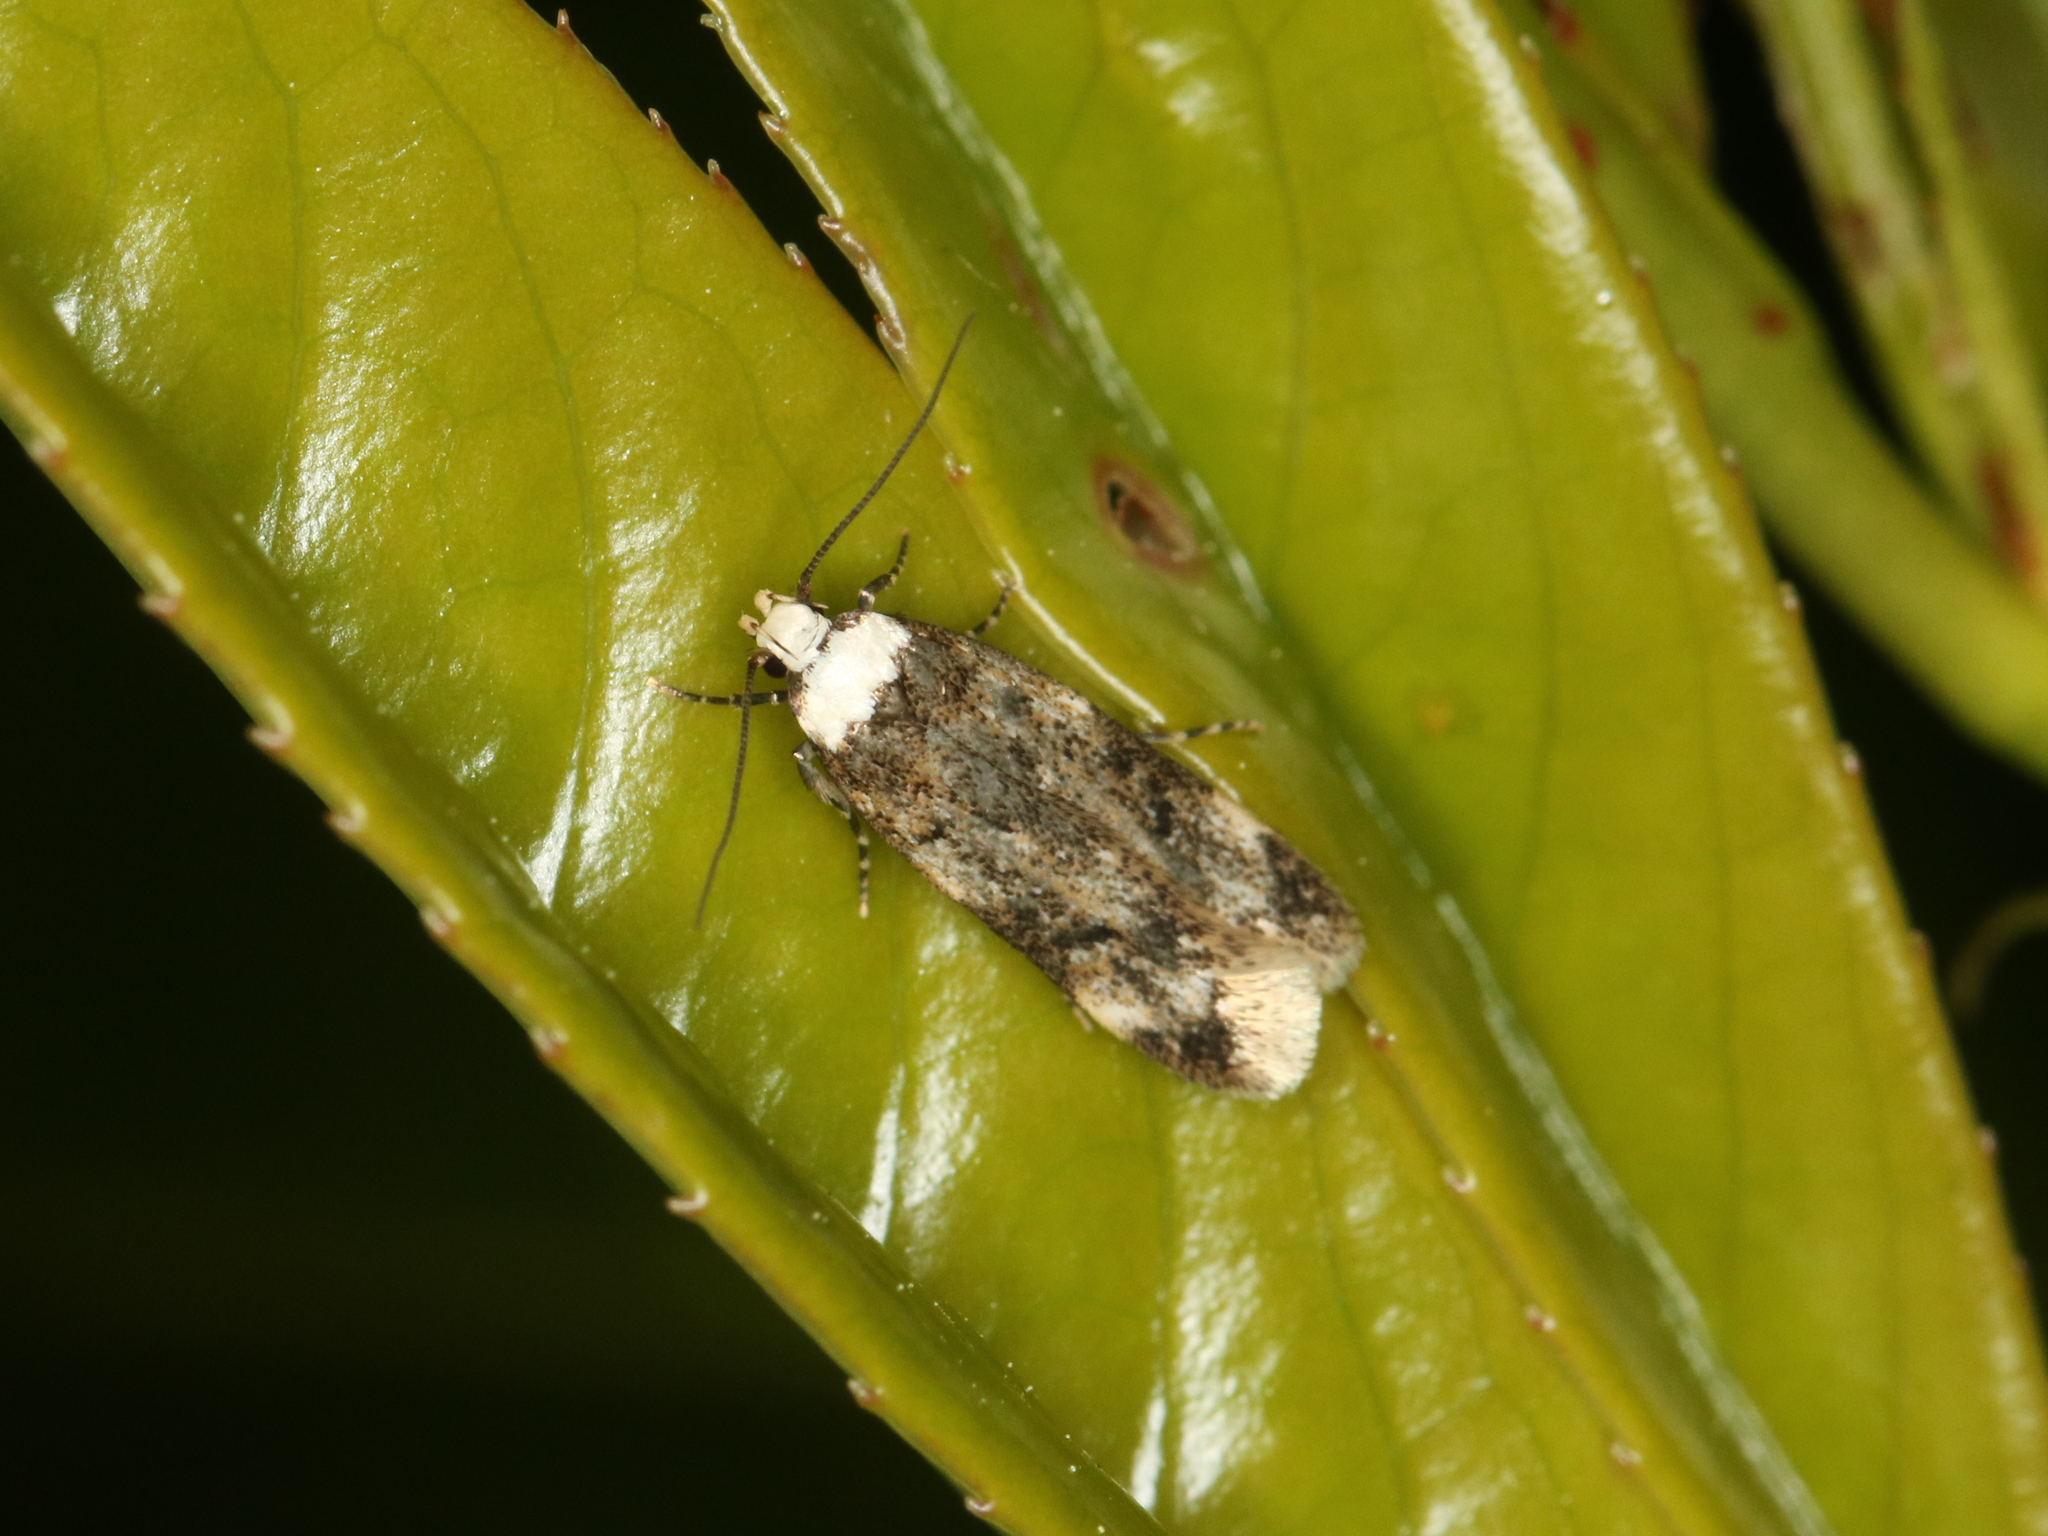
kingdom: Animalia
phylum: Arthropoda
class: Insecta
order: Lepidoptera
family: Oecophoridae
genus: Endrosis
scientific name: Endrosis sarcitrella
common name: White-shouldered house moth
